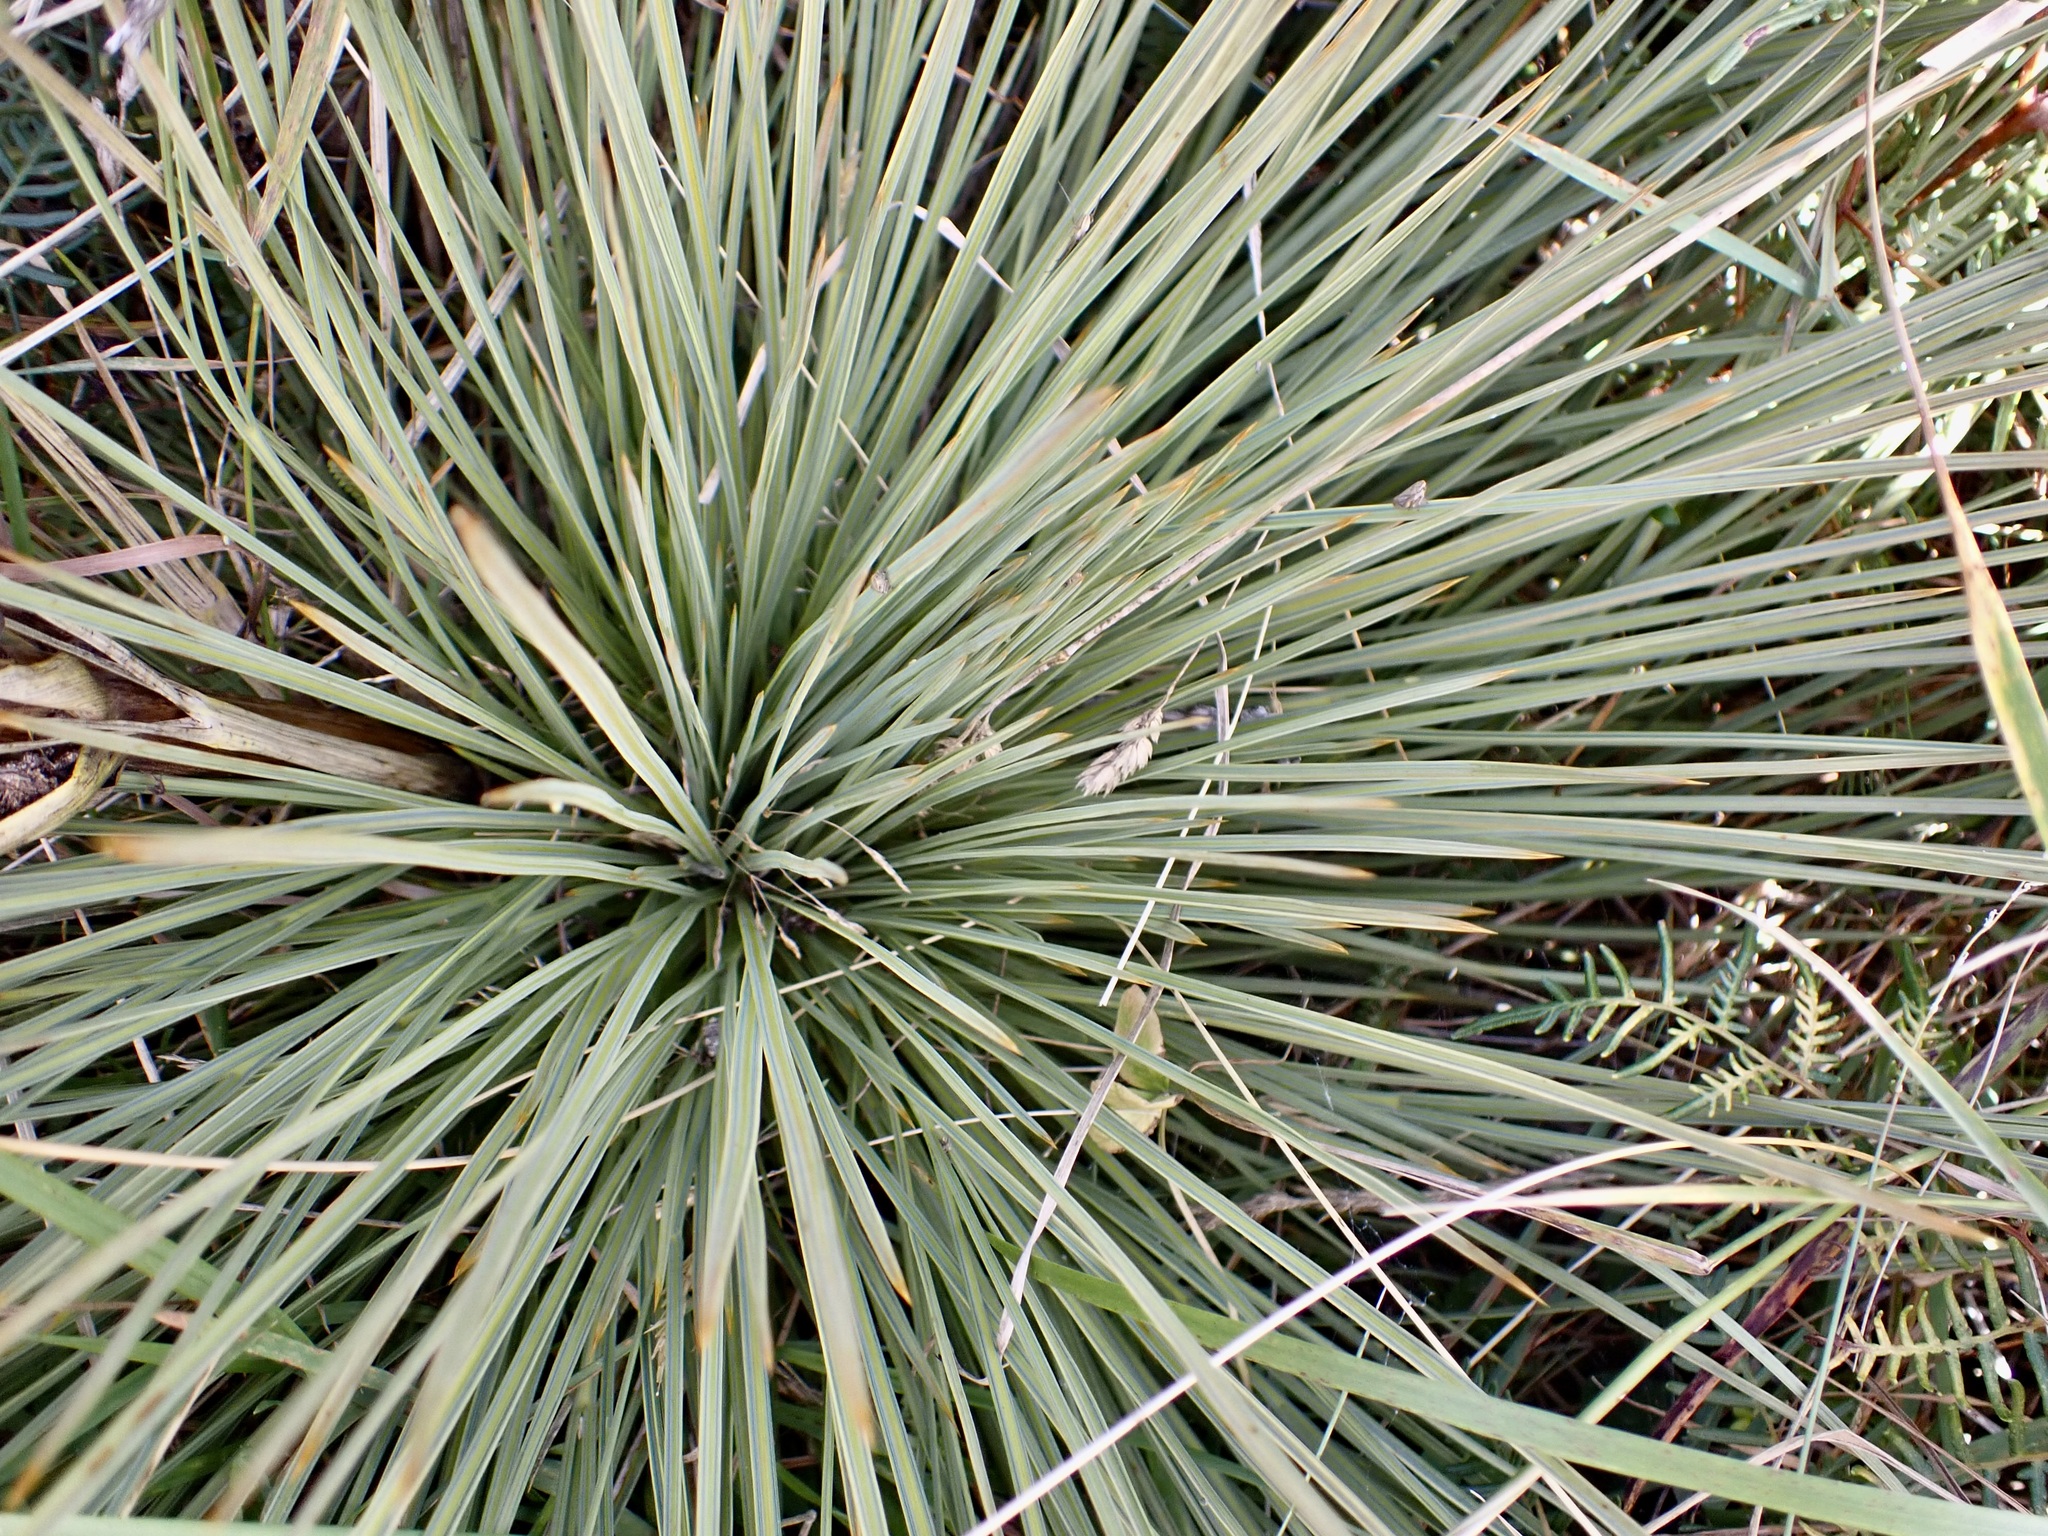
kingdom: Plantae
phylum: Tracheophyta
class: Magnoliopsida
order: Apiales
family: Apiaceae
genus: Aciphylla
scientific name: Aciphylla subflabellata
